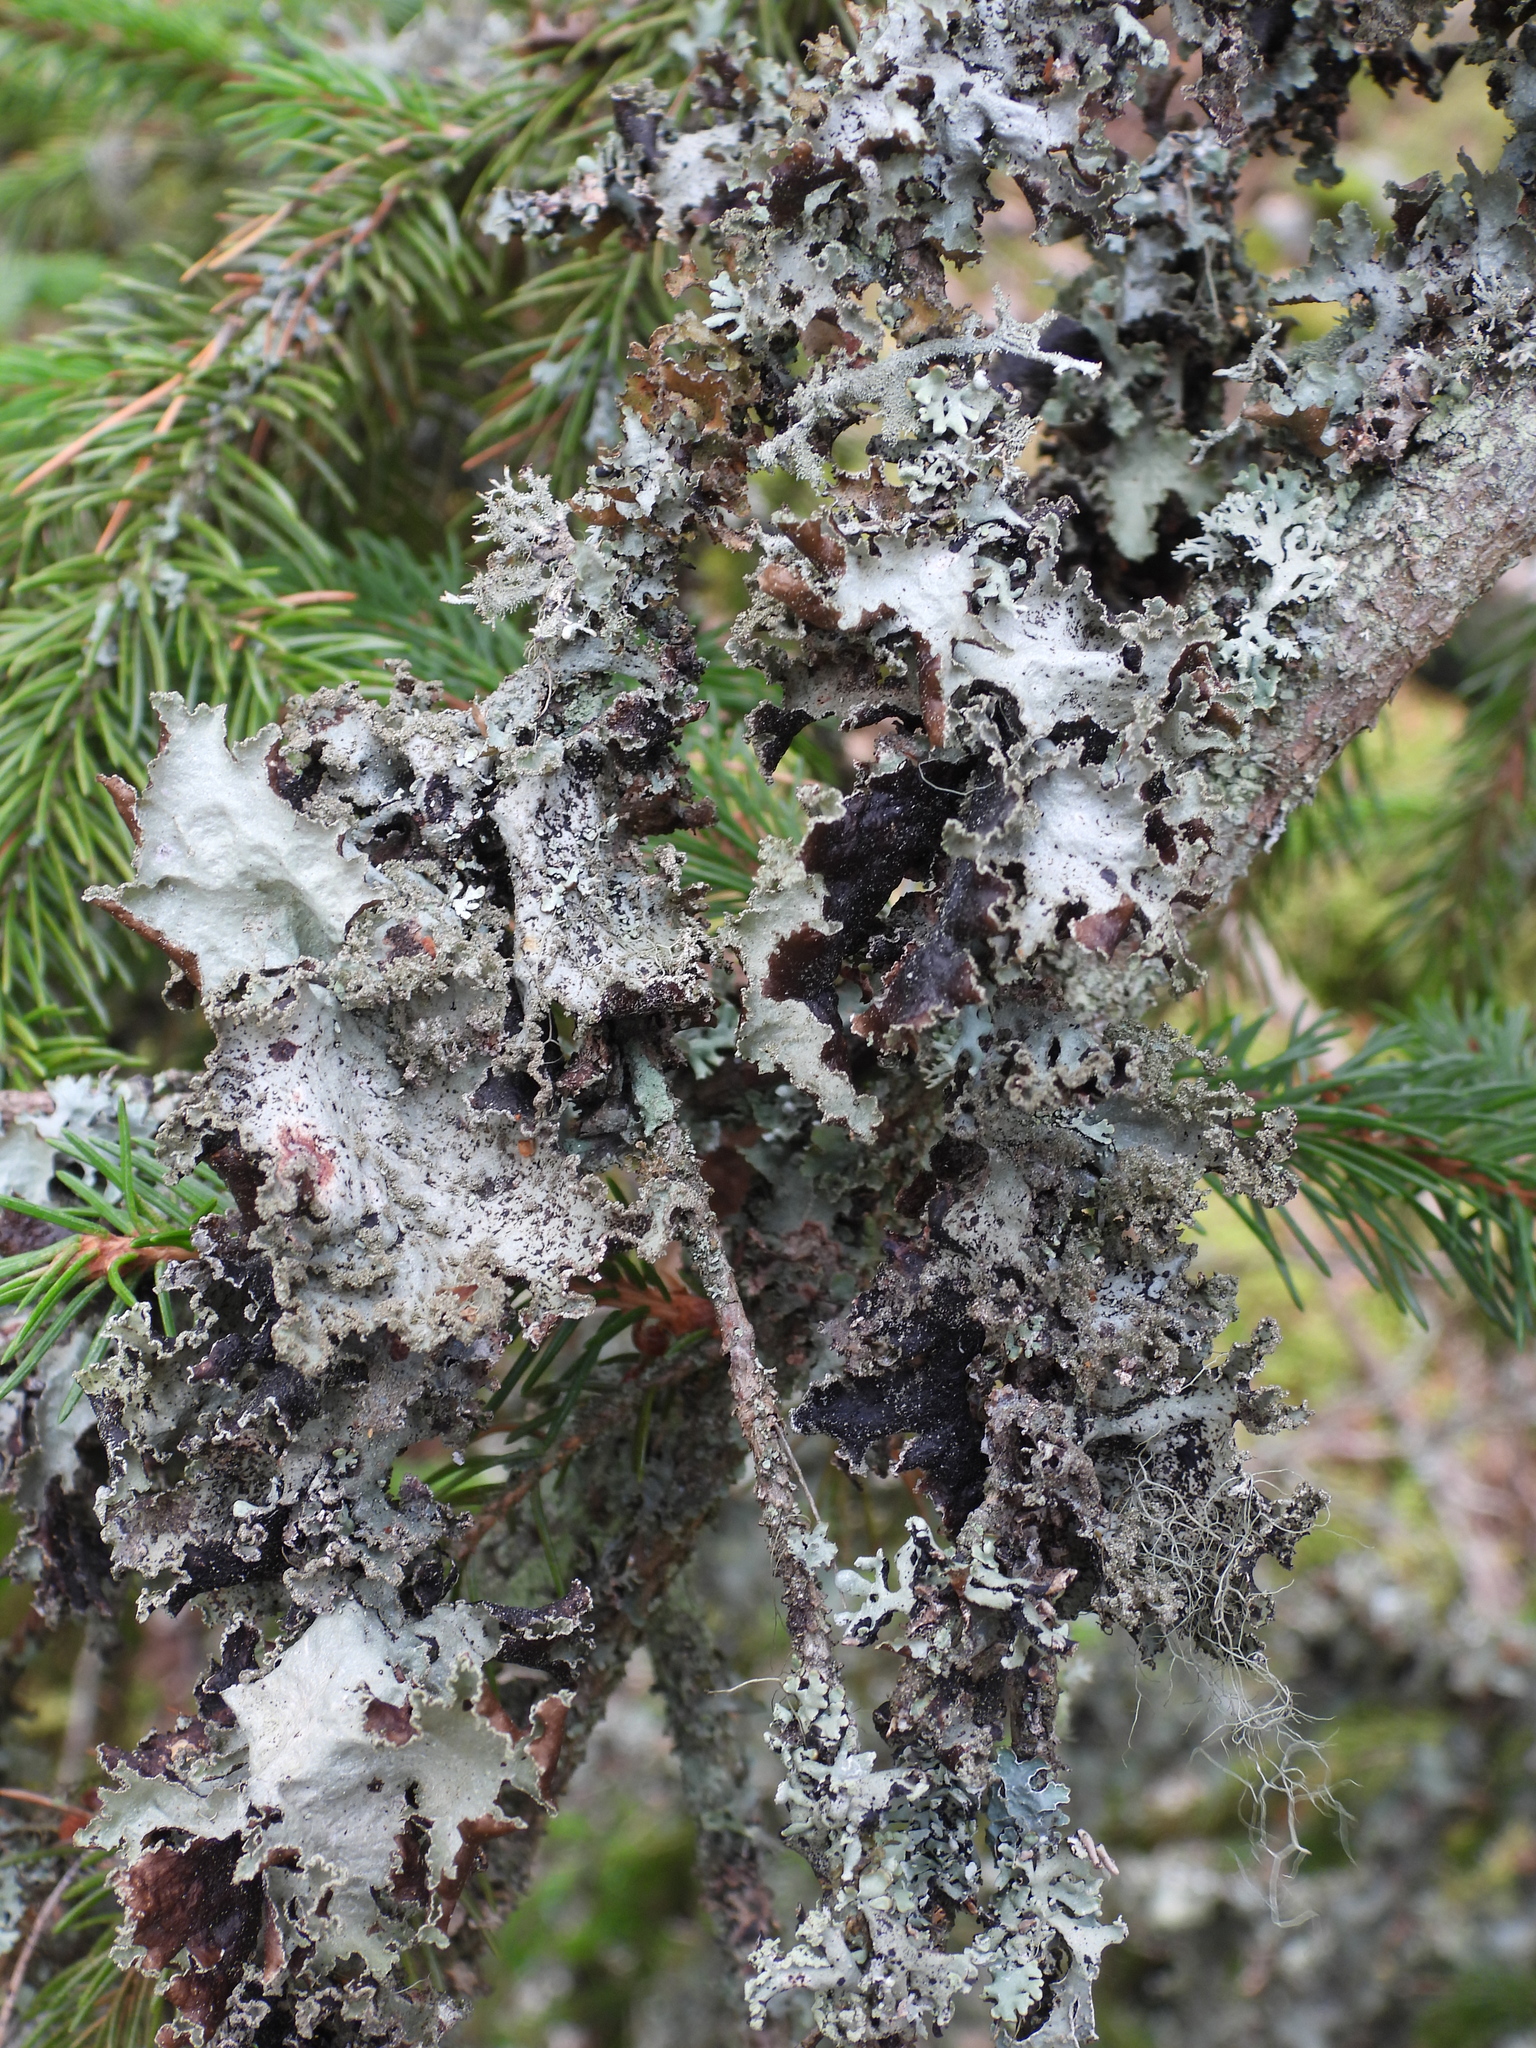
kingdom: Fungi
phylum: Ascomycota
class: Lecanoromycetes
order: Lecanorales
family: Parmeliaceae
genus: Platismatia
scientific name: Platismatia glauca
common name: Varied rag lichen
